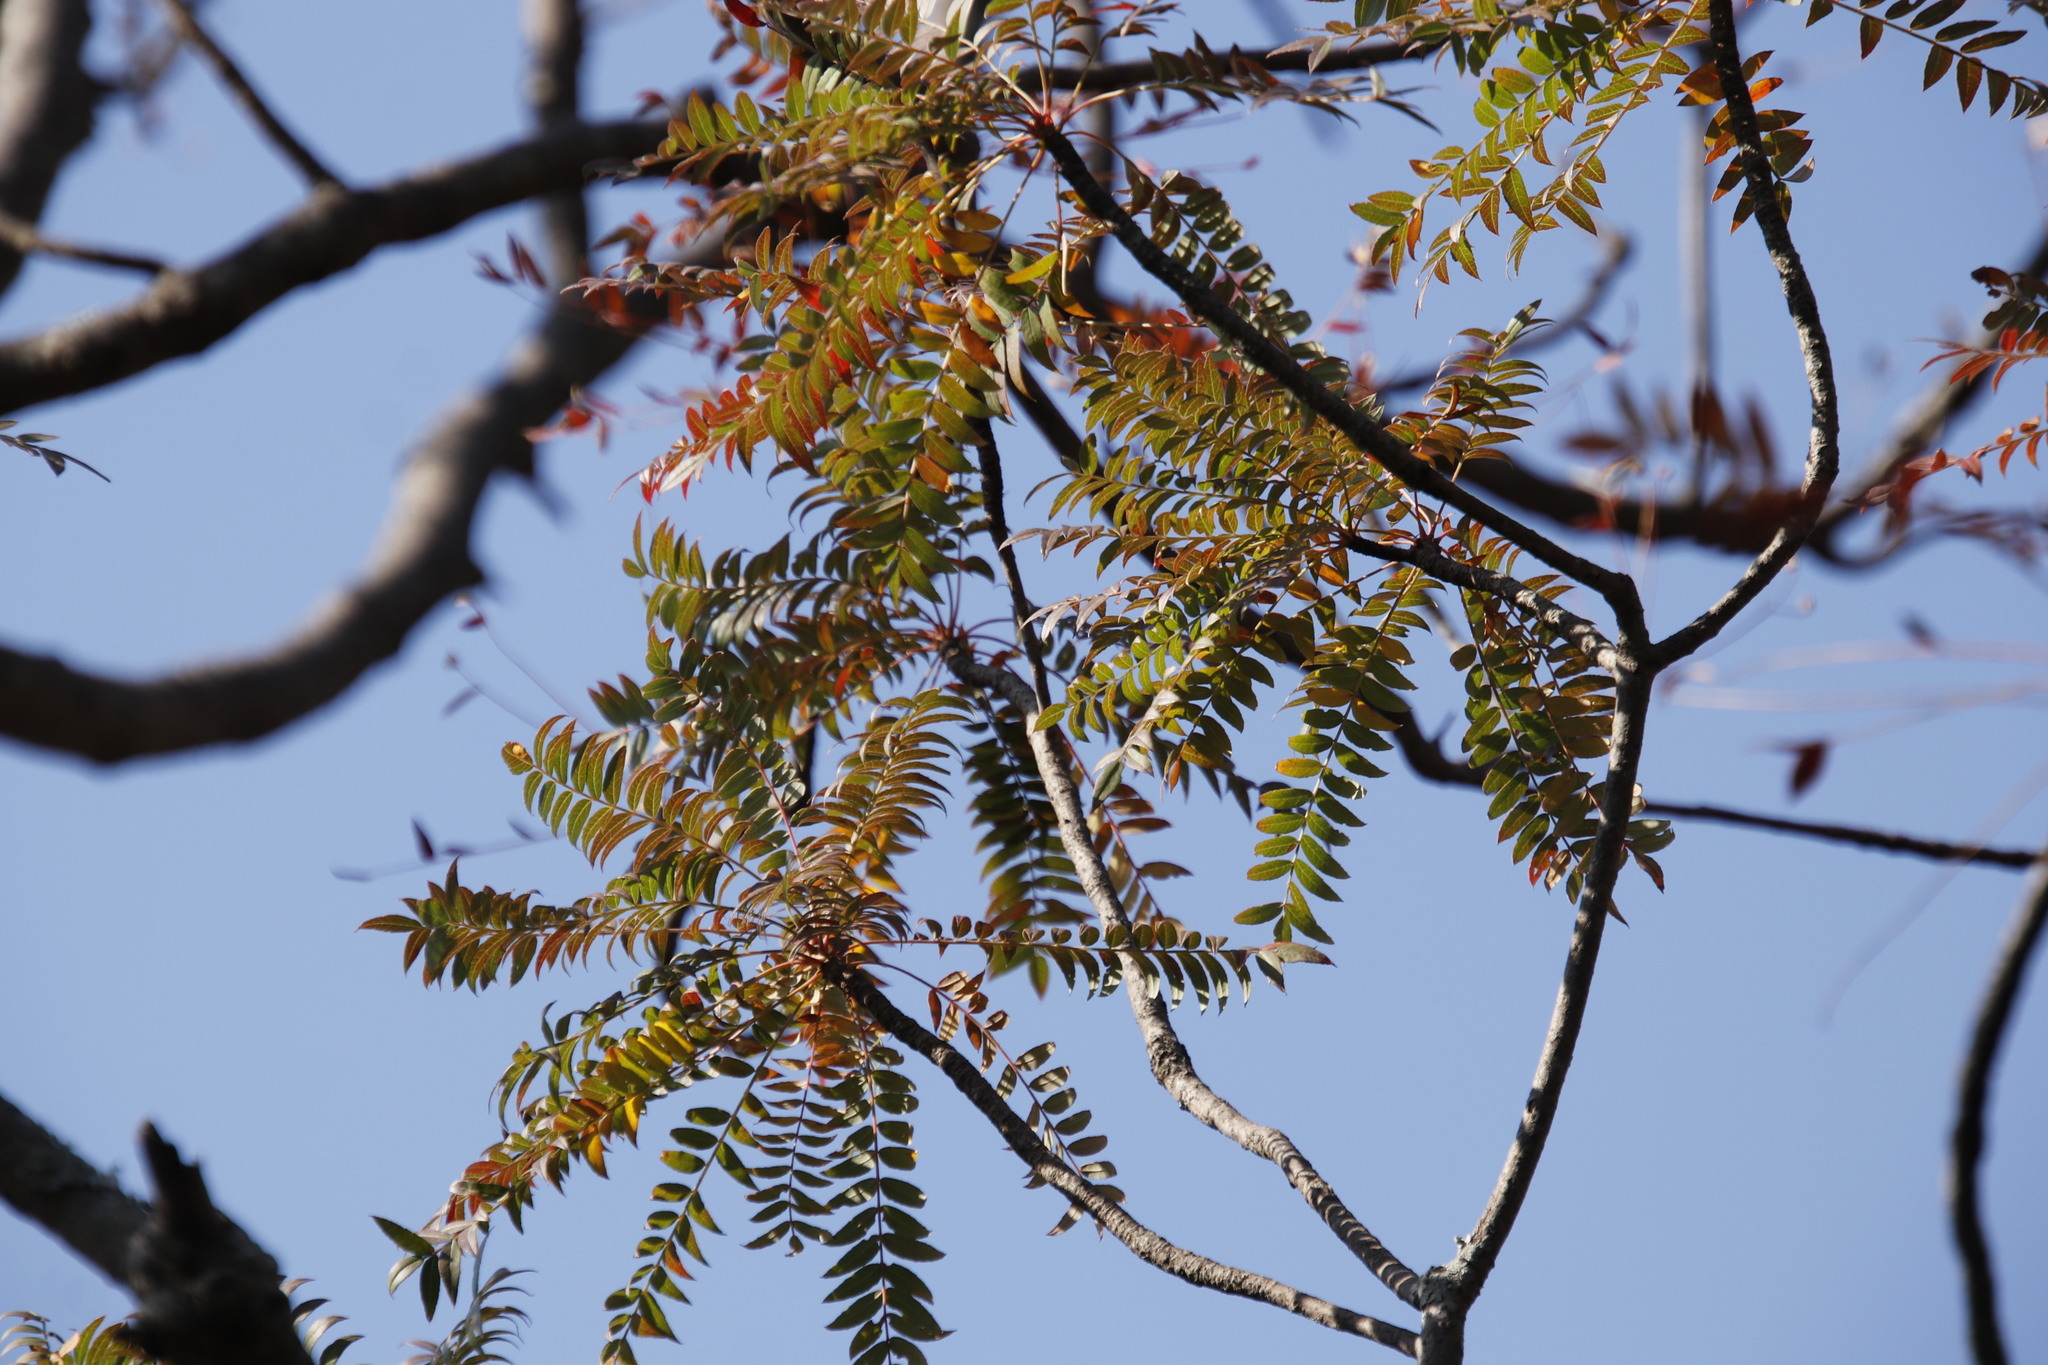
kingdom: Plantae
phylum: Tracheophyta
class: Magnoliopsida
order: Sapindales
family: Kirkiaceae
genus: Kirkia
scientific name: Kirkia wilmsii
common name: Mountain seringa
